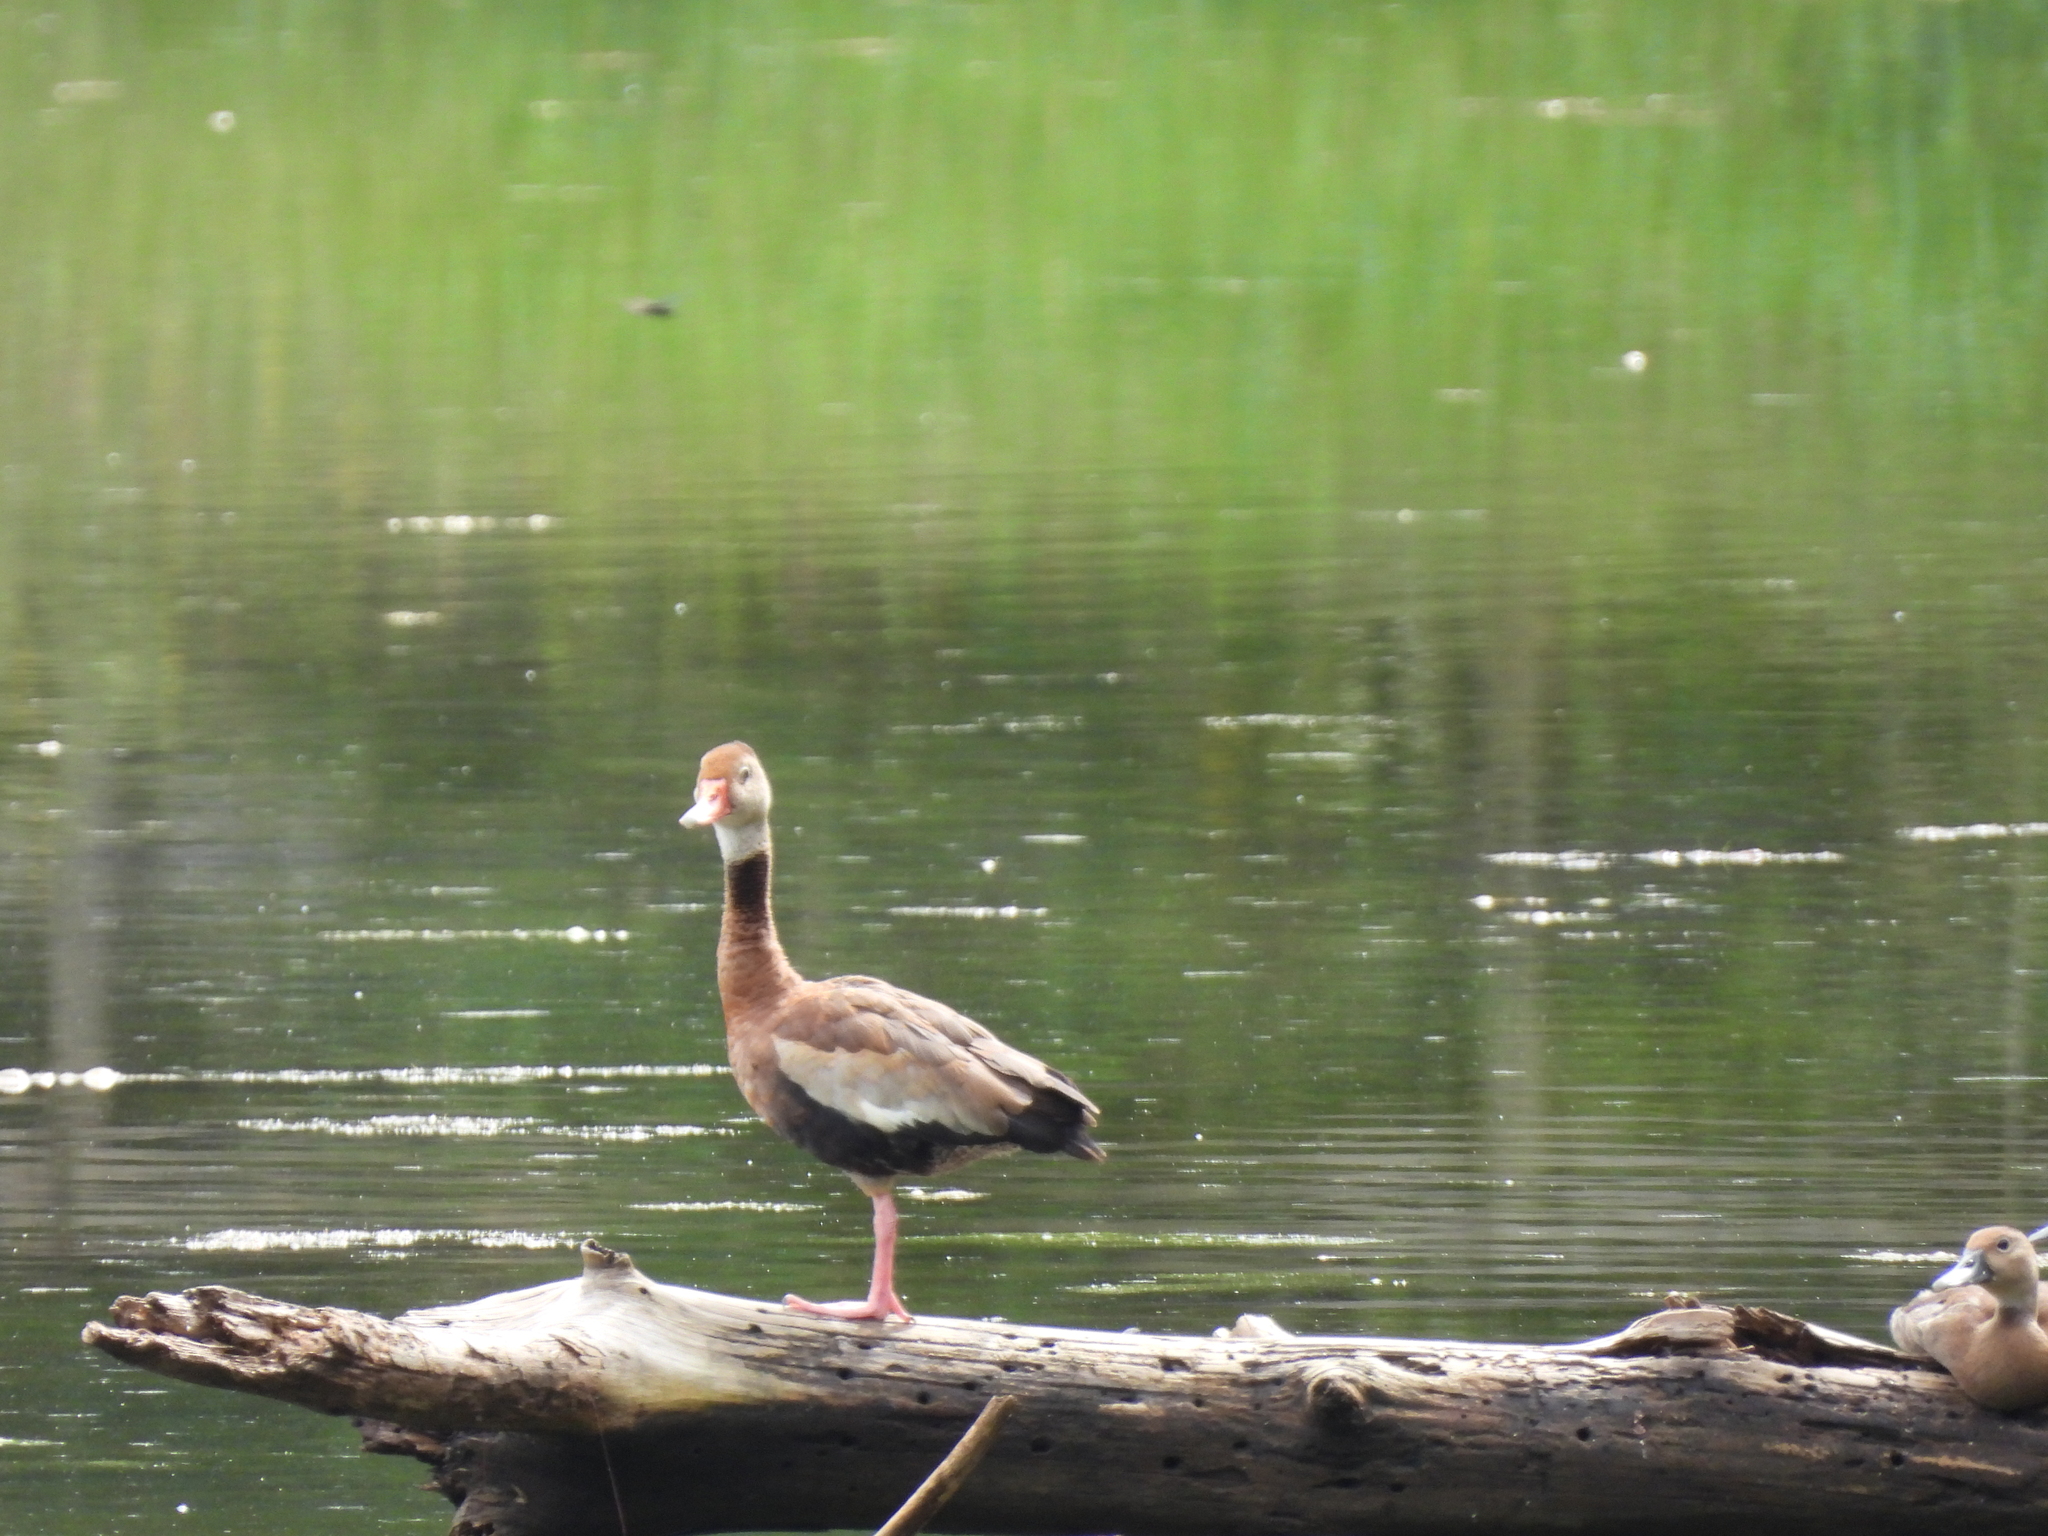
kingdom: Animalia
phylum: Chordata
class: Aves
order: Anseriformes
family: Anatidae
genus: Dendrocygna
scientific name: Dendrocygna autumnalis
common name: Black-bellied whistling duck
